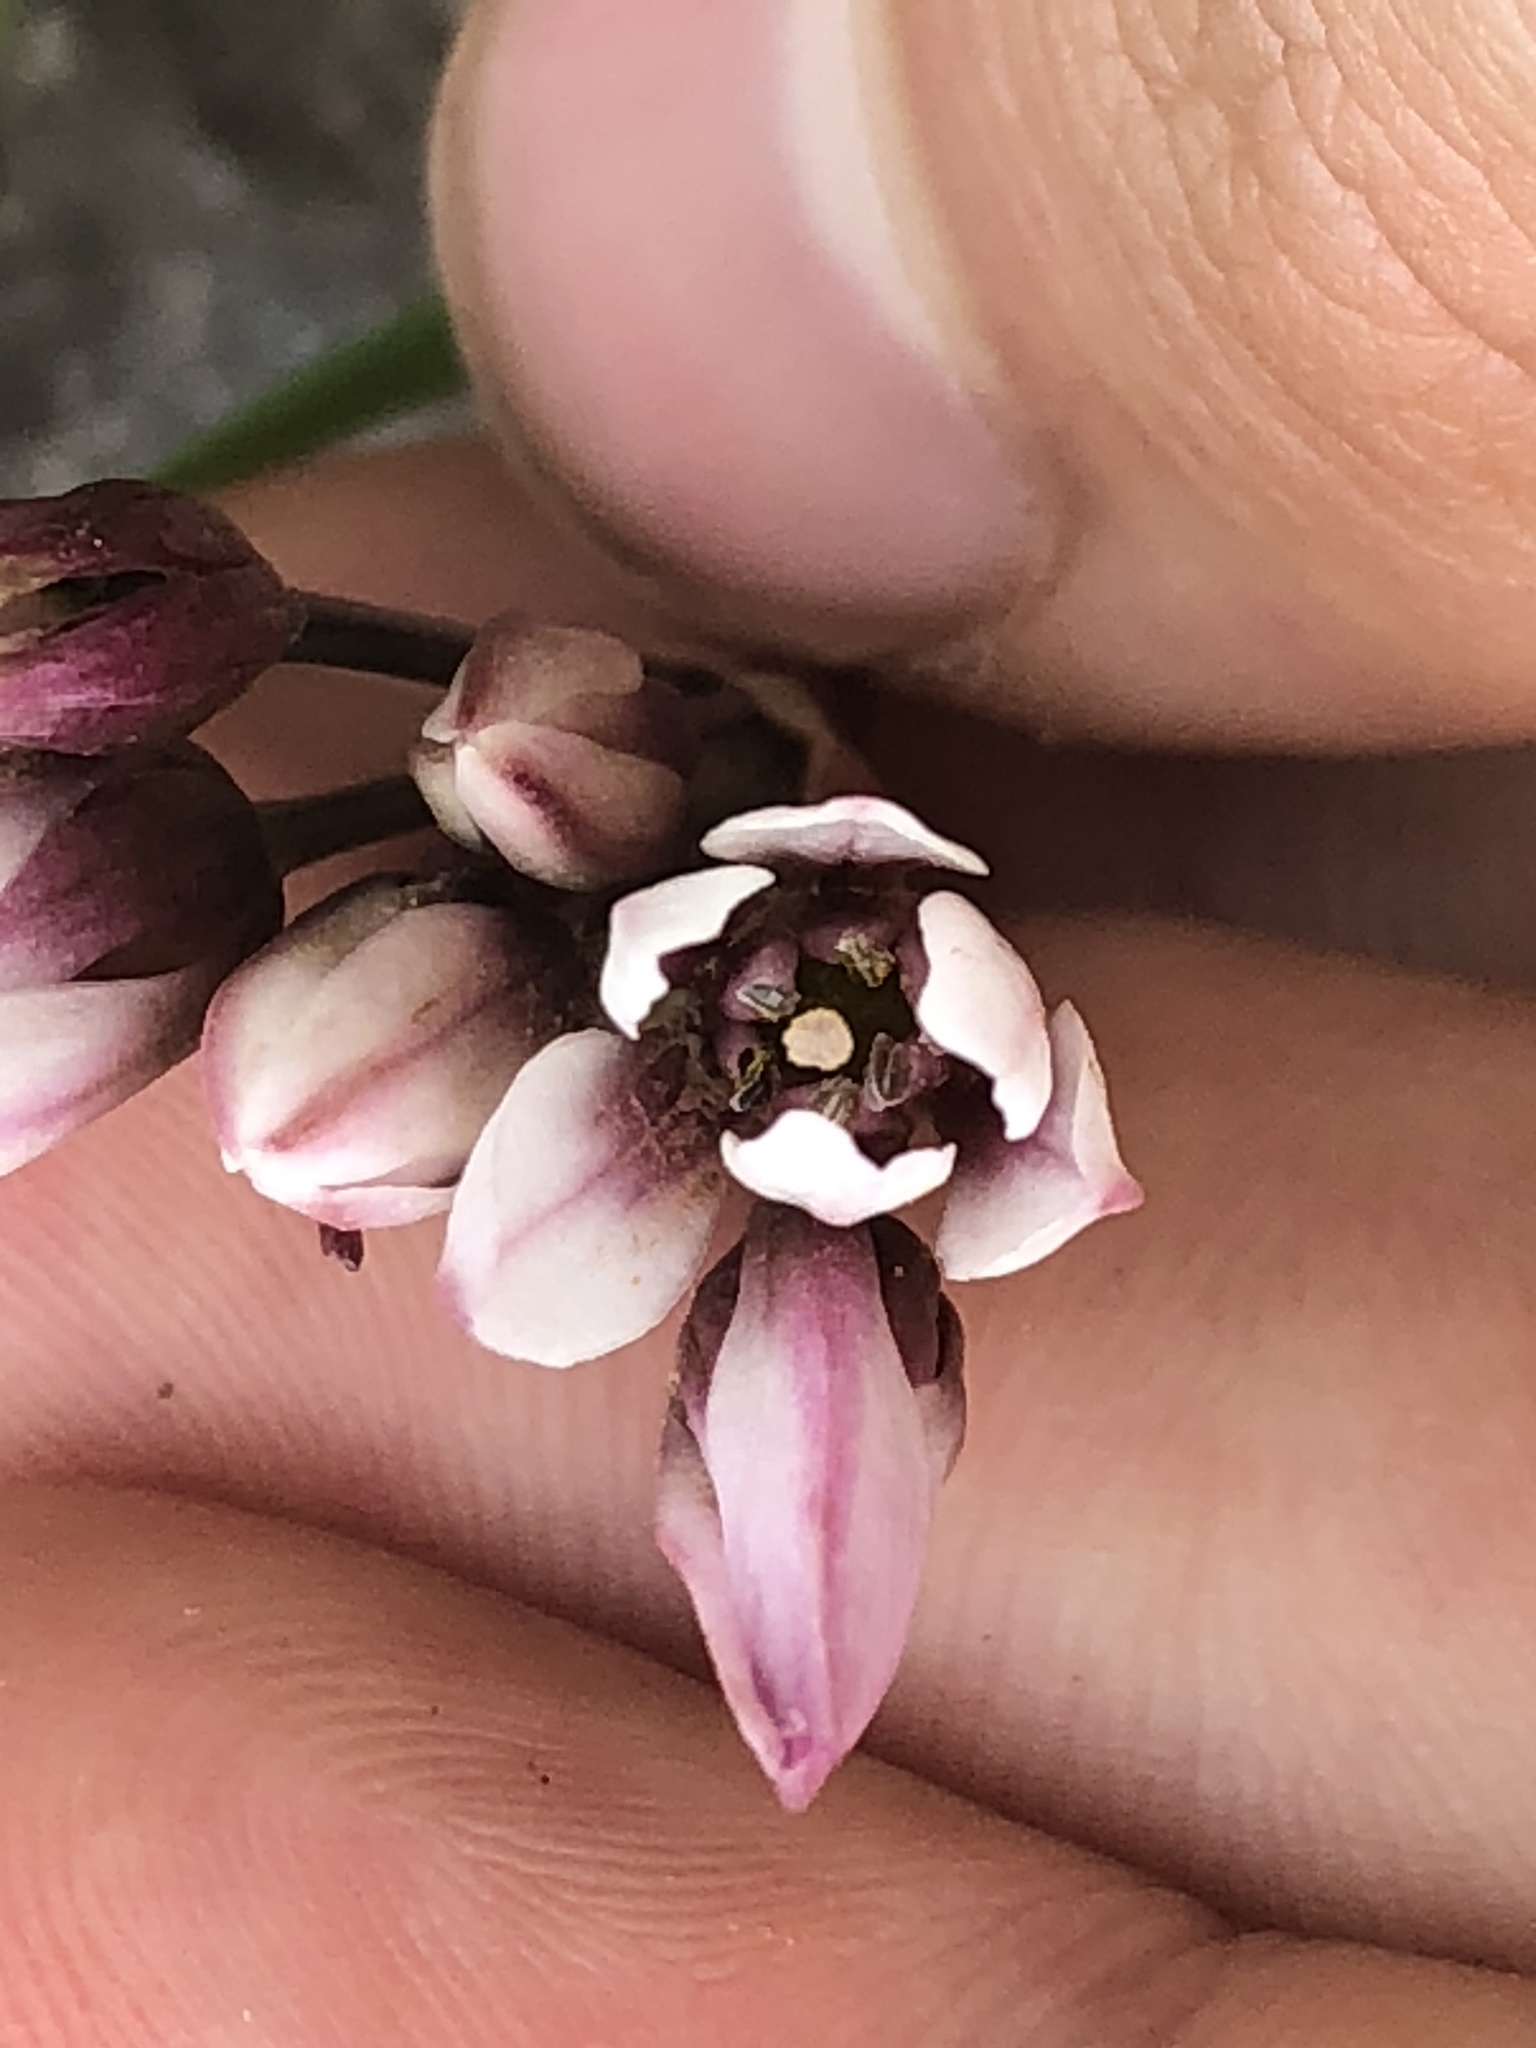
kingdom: Plantae
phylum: Tracheophyta
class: Liliopsida
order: Asparagales
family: Amaryllidaceae
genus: Nothoscordum
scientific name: Nothoscordum andicola
